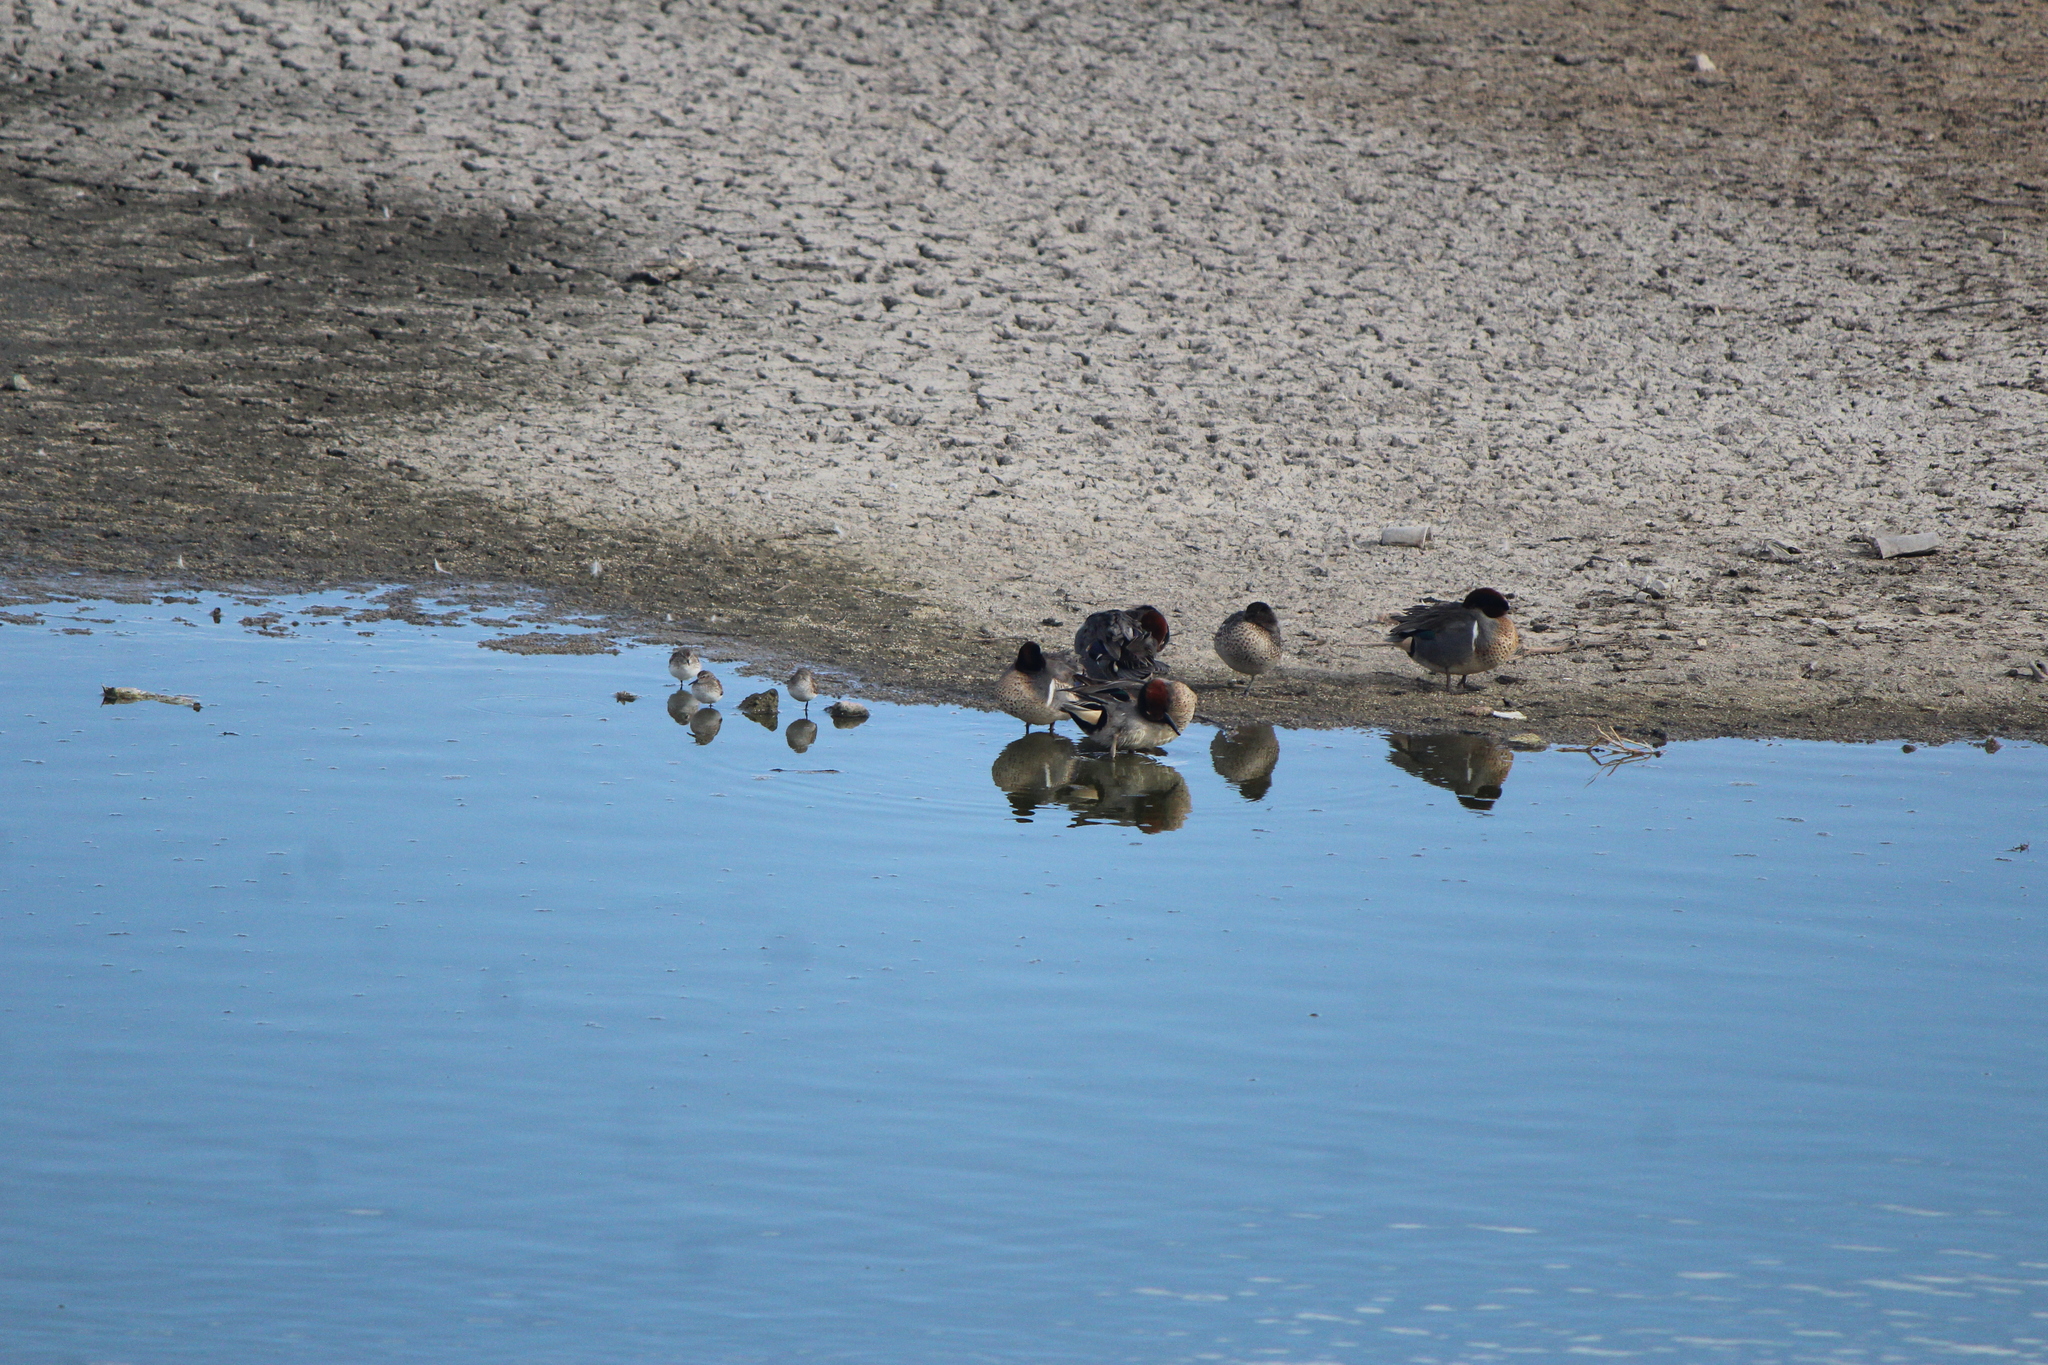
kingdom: Animalia
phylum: Chordata
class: Aves
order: Anseriformes
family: Anatidae
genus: Anas
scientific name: Anas crecca
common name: Eurasian teal
